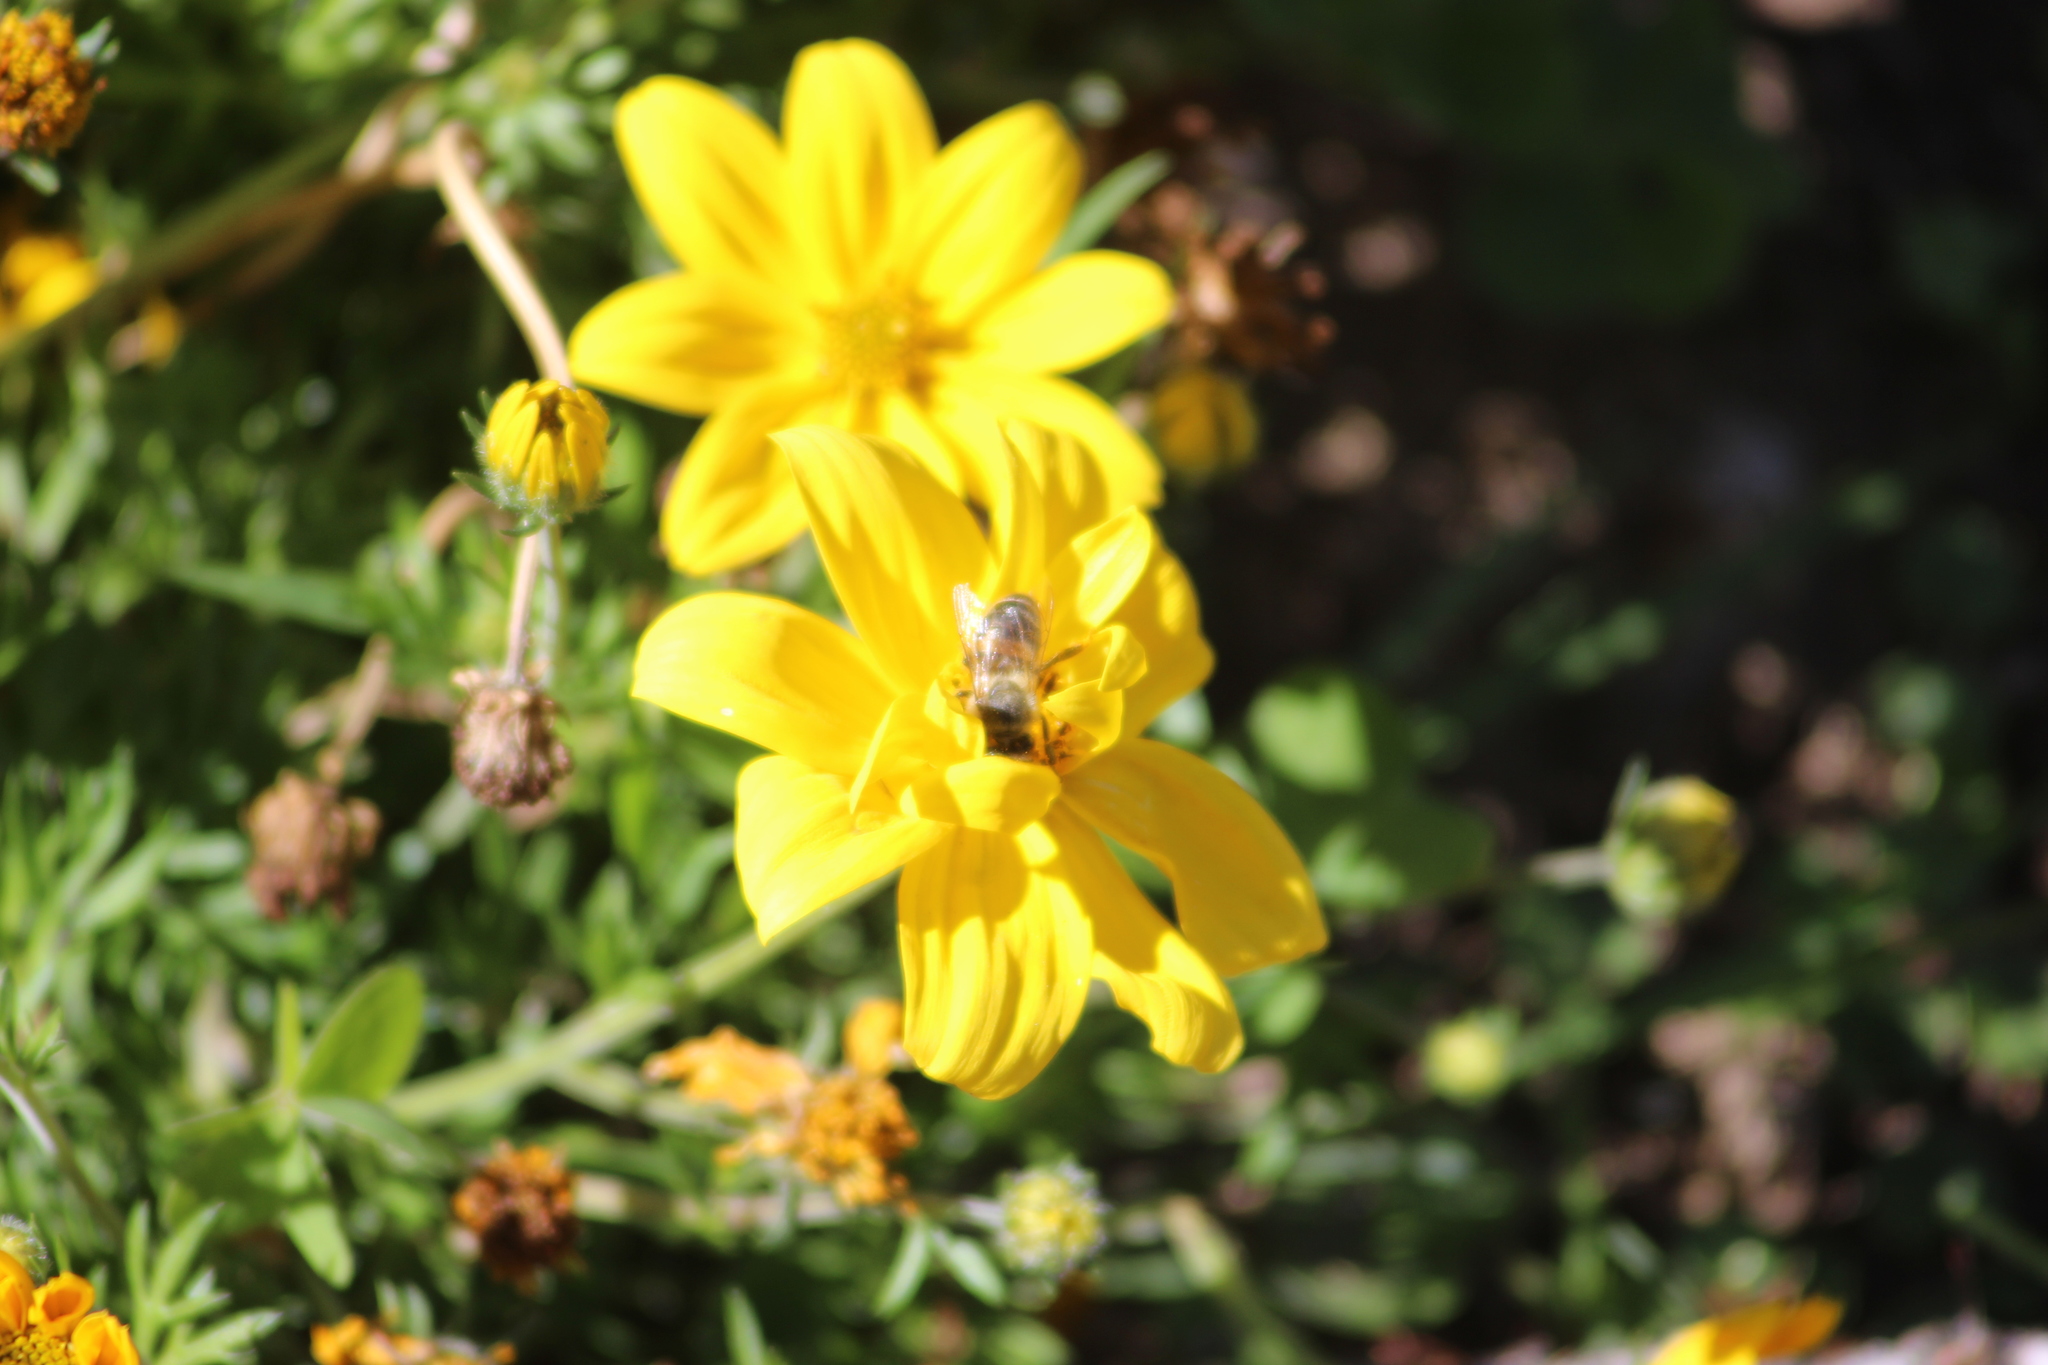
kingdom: Animalia
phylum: Arthropoda
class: Insecta
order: Hymenoptera
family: Apidae
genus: Apis
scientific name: Apis mellifera
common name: Honey bee
